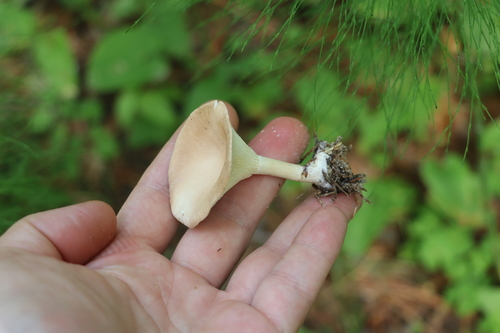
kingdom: Fungi
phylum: Basidiomycota
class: Agaricomycetes
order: Agaricales
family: Tricholomataceae
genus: Infundibulicybe
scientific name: Infundibulicybe gibba
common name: Common funnel
